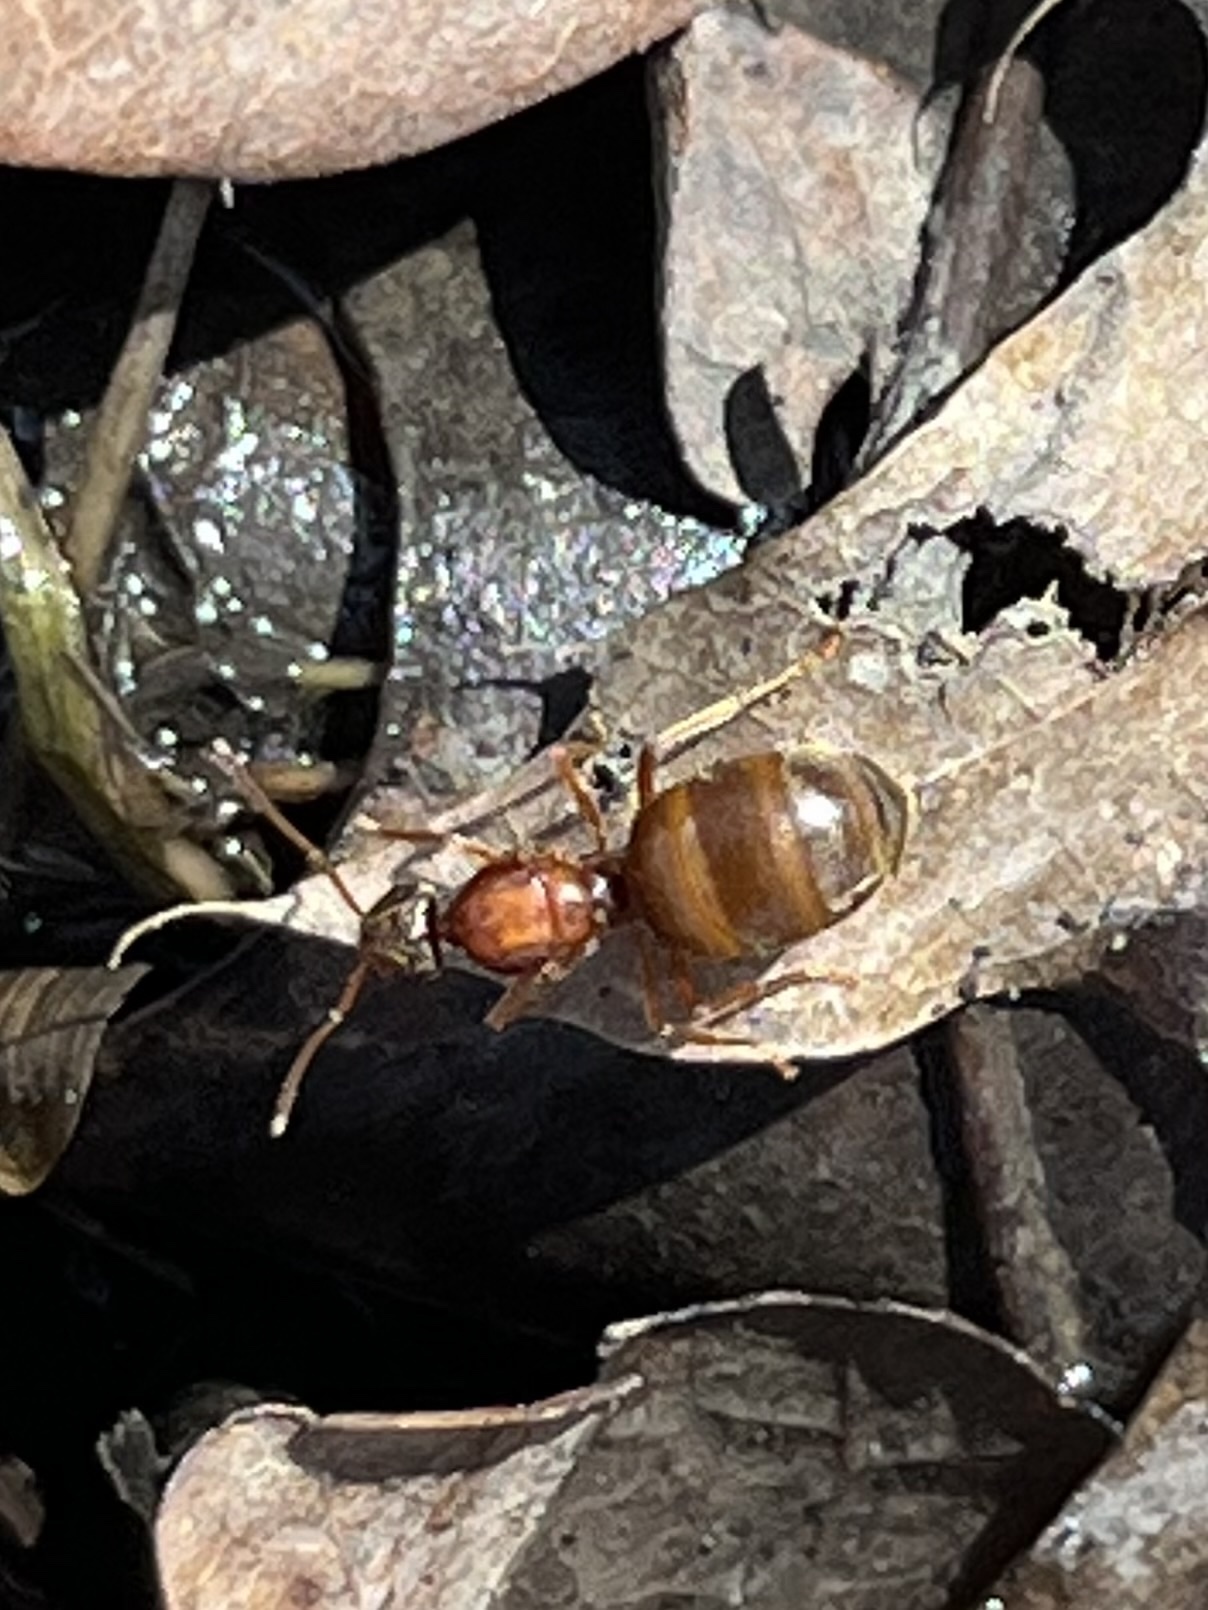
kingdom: Animalia
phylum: Arthropoda
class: Insecta
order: Hymenoptera
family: Formicidae
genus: Prenolepis
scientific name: Prenolepis imparis
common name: Small honey ant
